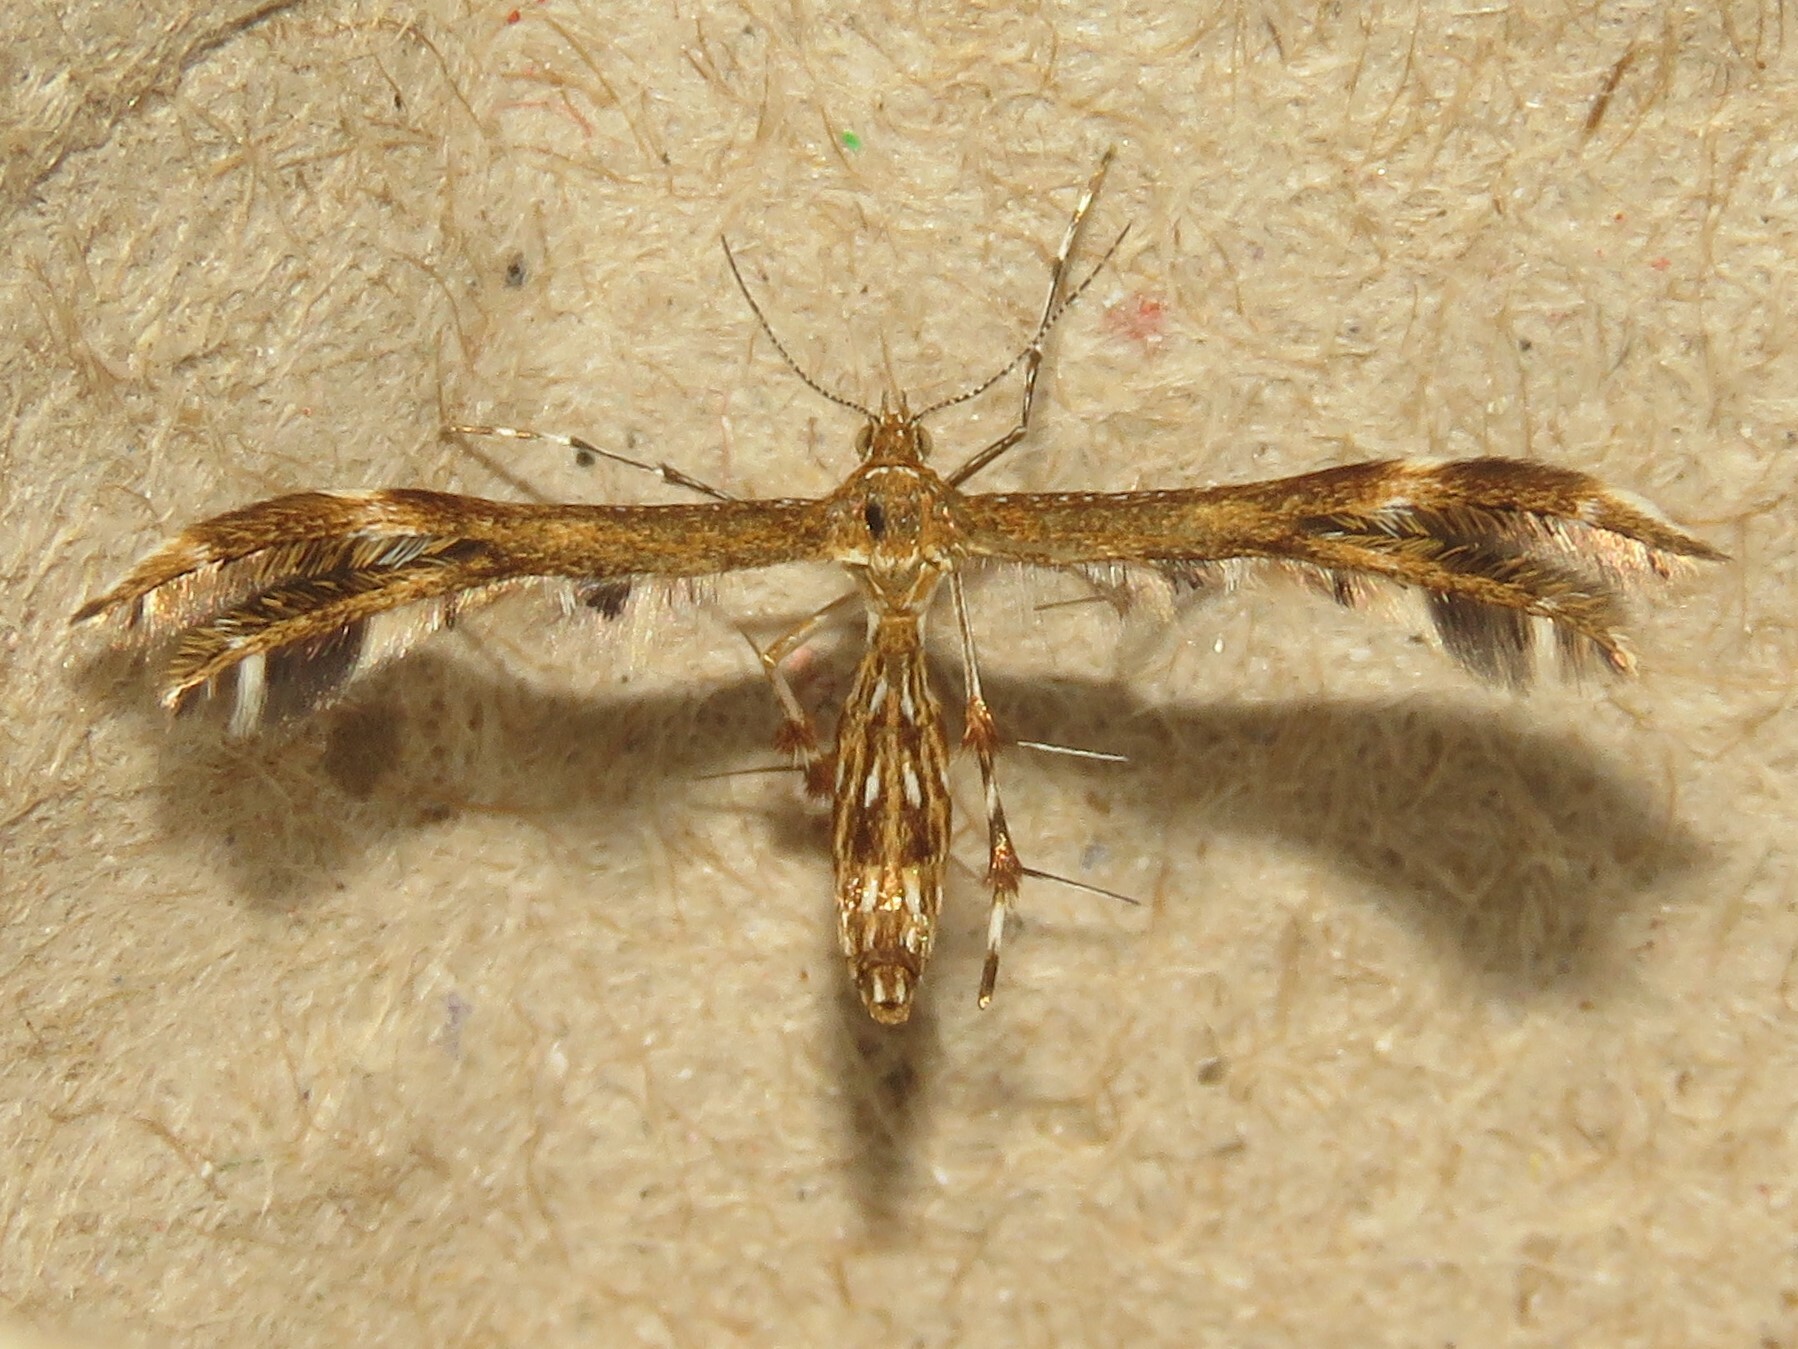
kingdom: Animalia
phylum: Arthropoda
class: Insecta
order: Lepidoptera
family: Pterophoridae
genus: Dejongia
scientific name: Dejongia lobidactylus
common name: Lobed plume moth
